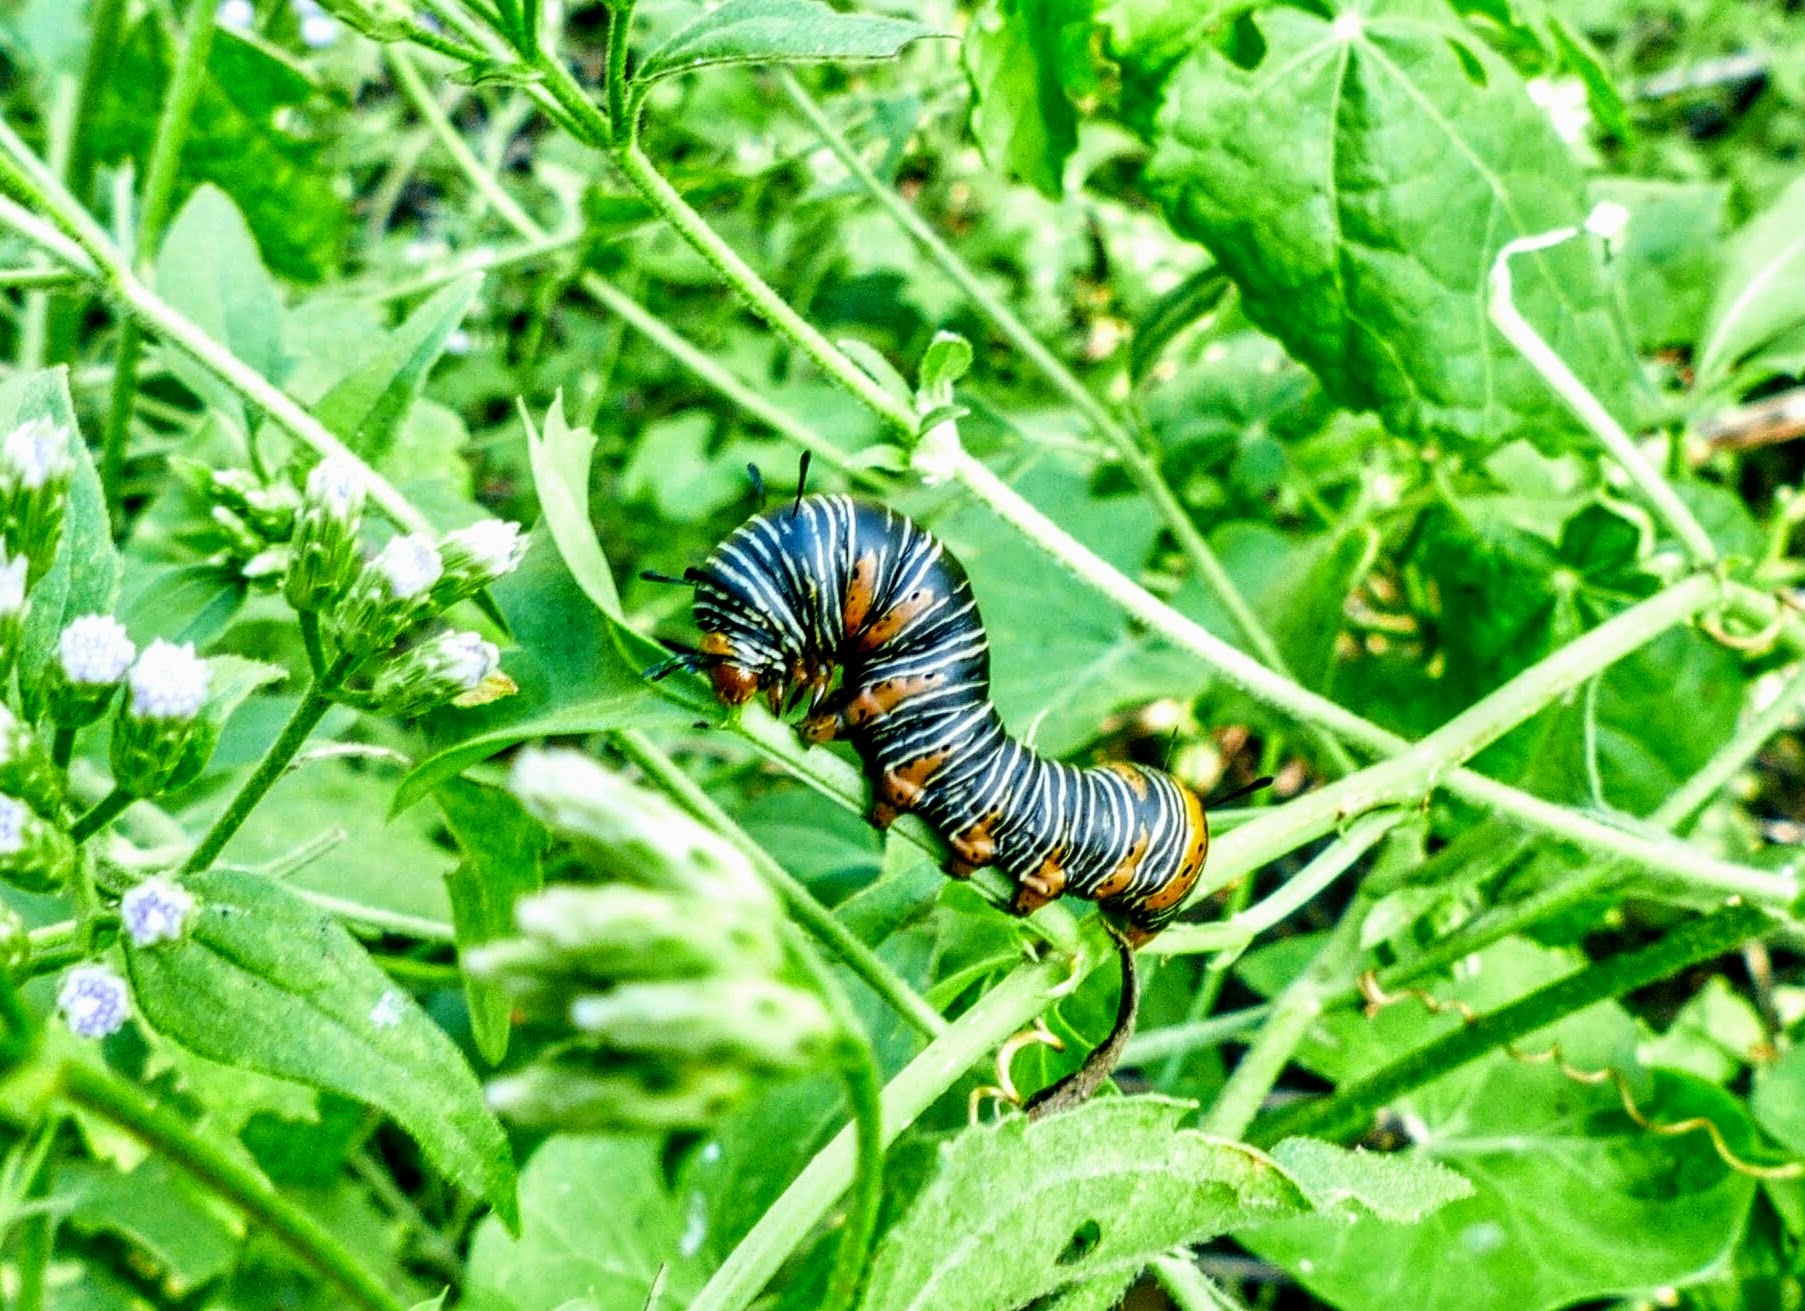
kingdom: Animalia
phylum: Arthropoda
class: Insecta
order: Lepidoptera
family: Noctuidae
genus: Xerociris
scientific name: Xerociris wilsonii
